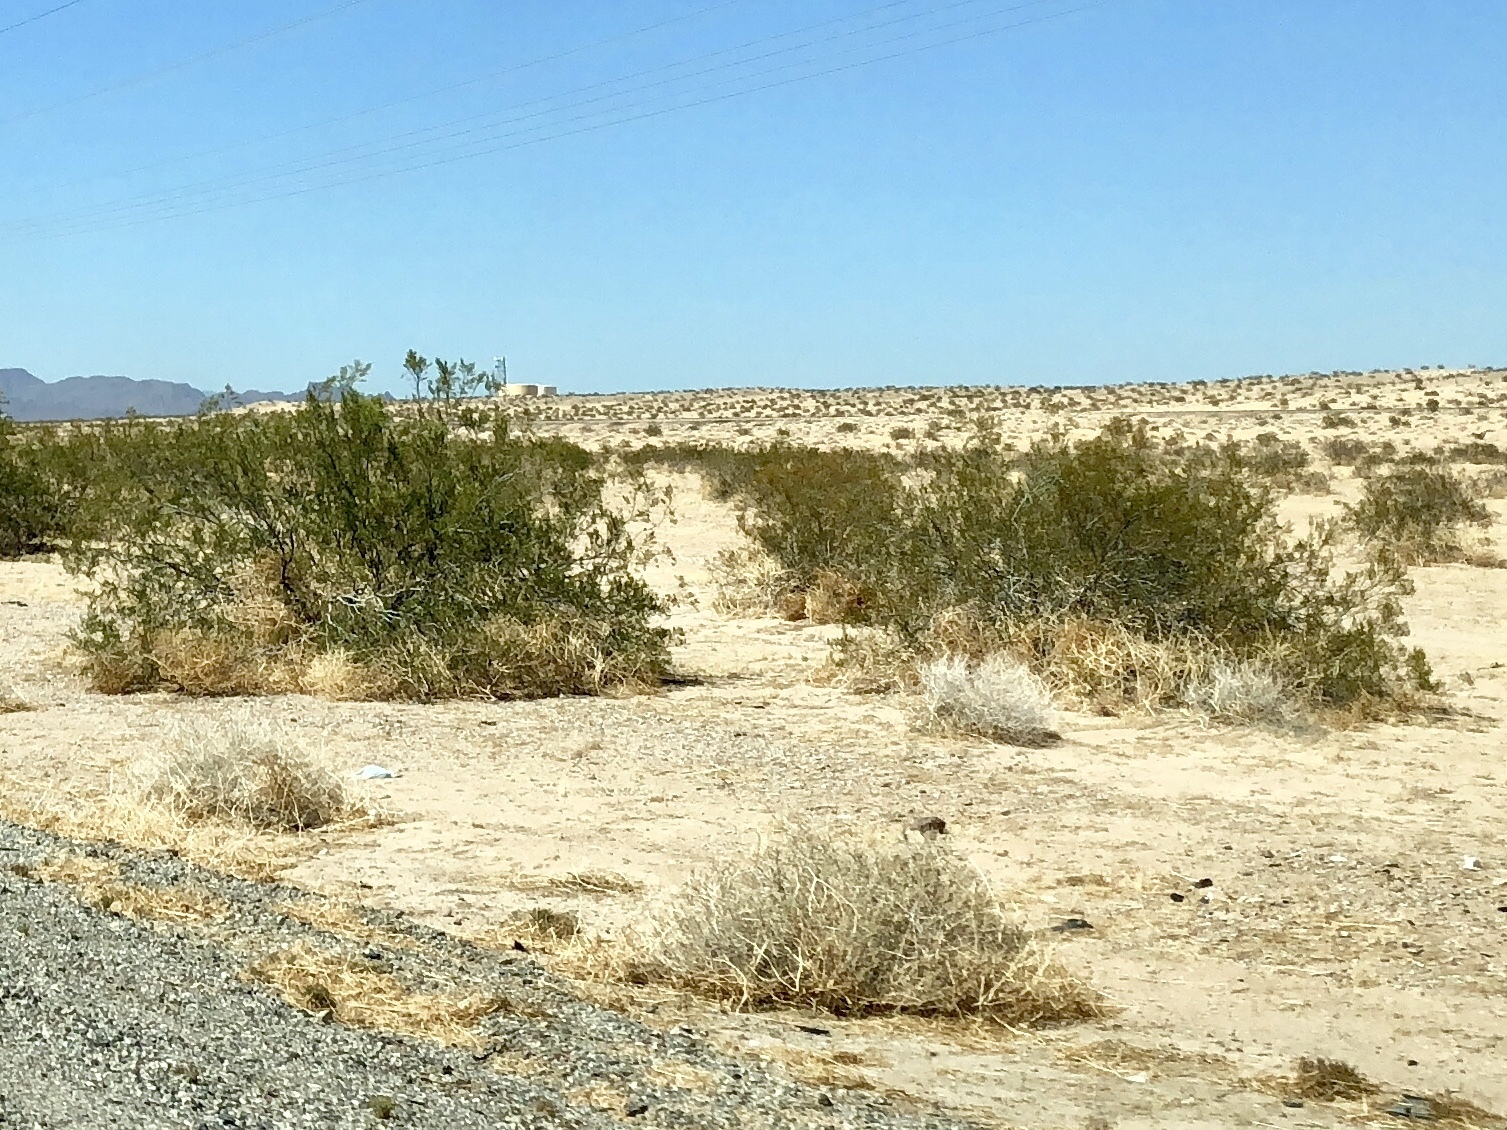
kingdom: Plantae
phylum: Tracheophyta
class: Magnoliopsida
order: Zygophyllales
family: Zygophyllaceae
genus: Larrea
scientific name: Larrea tridentata
